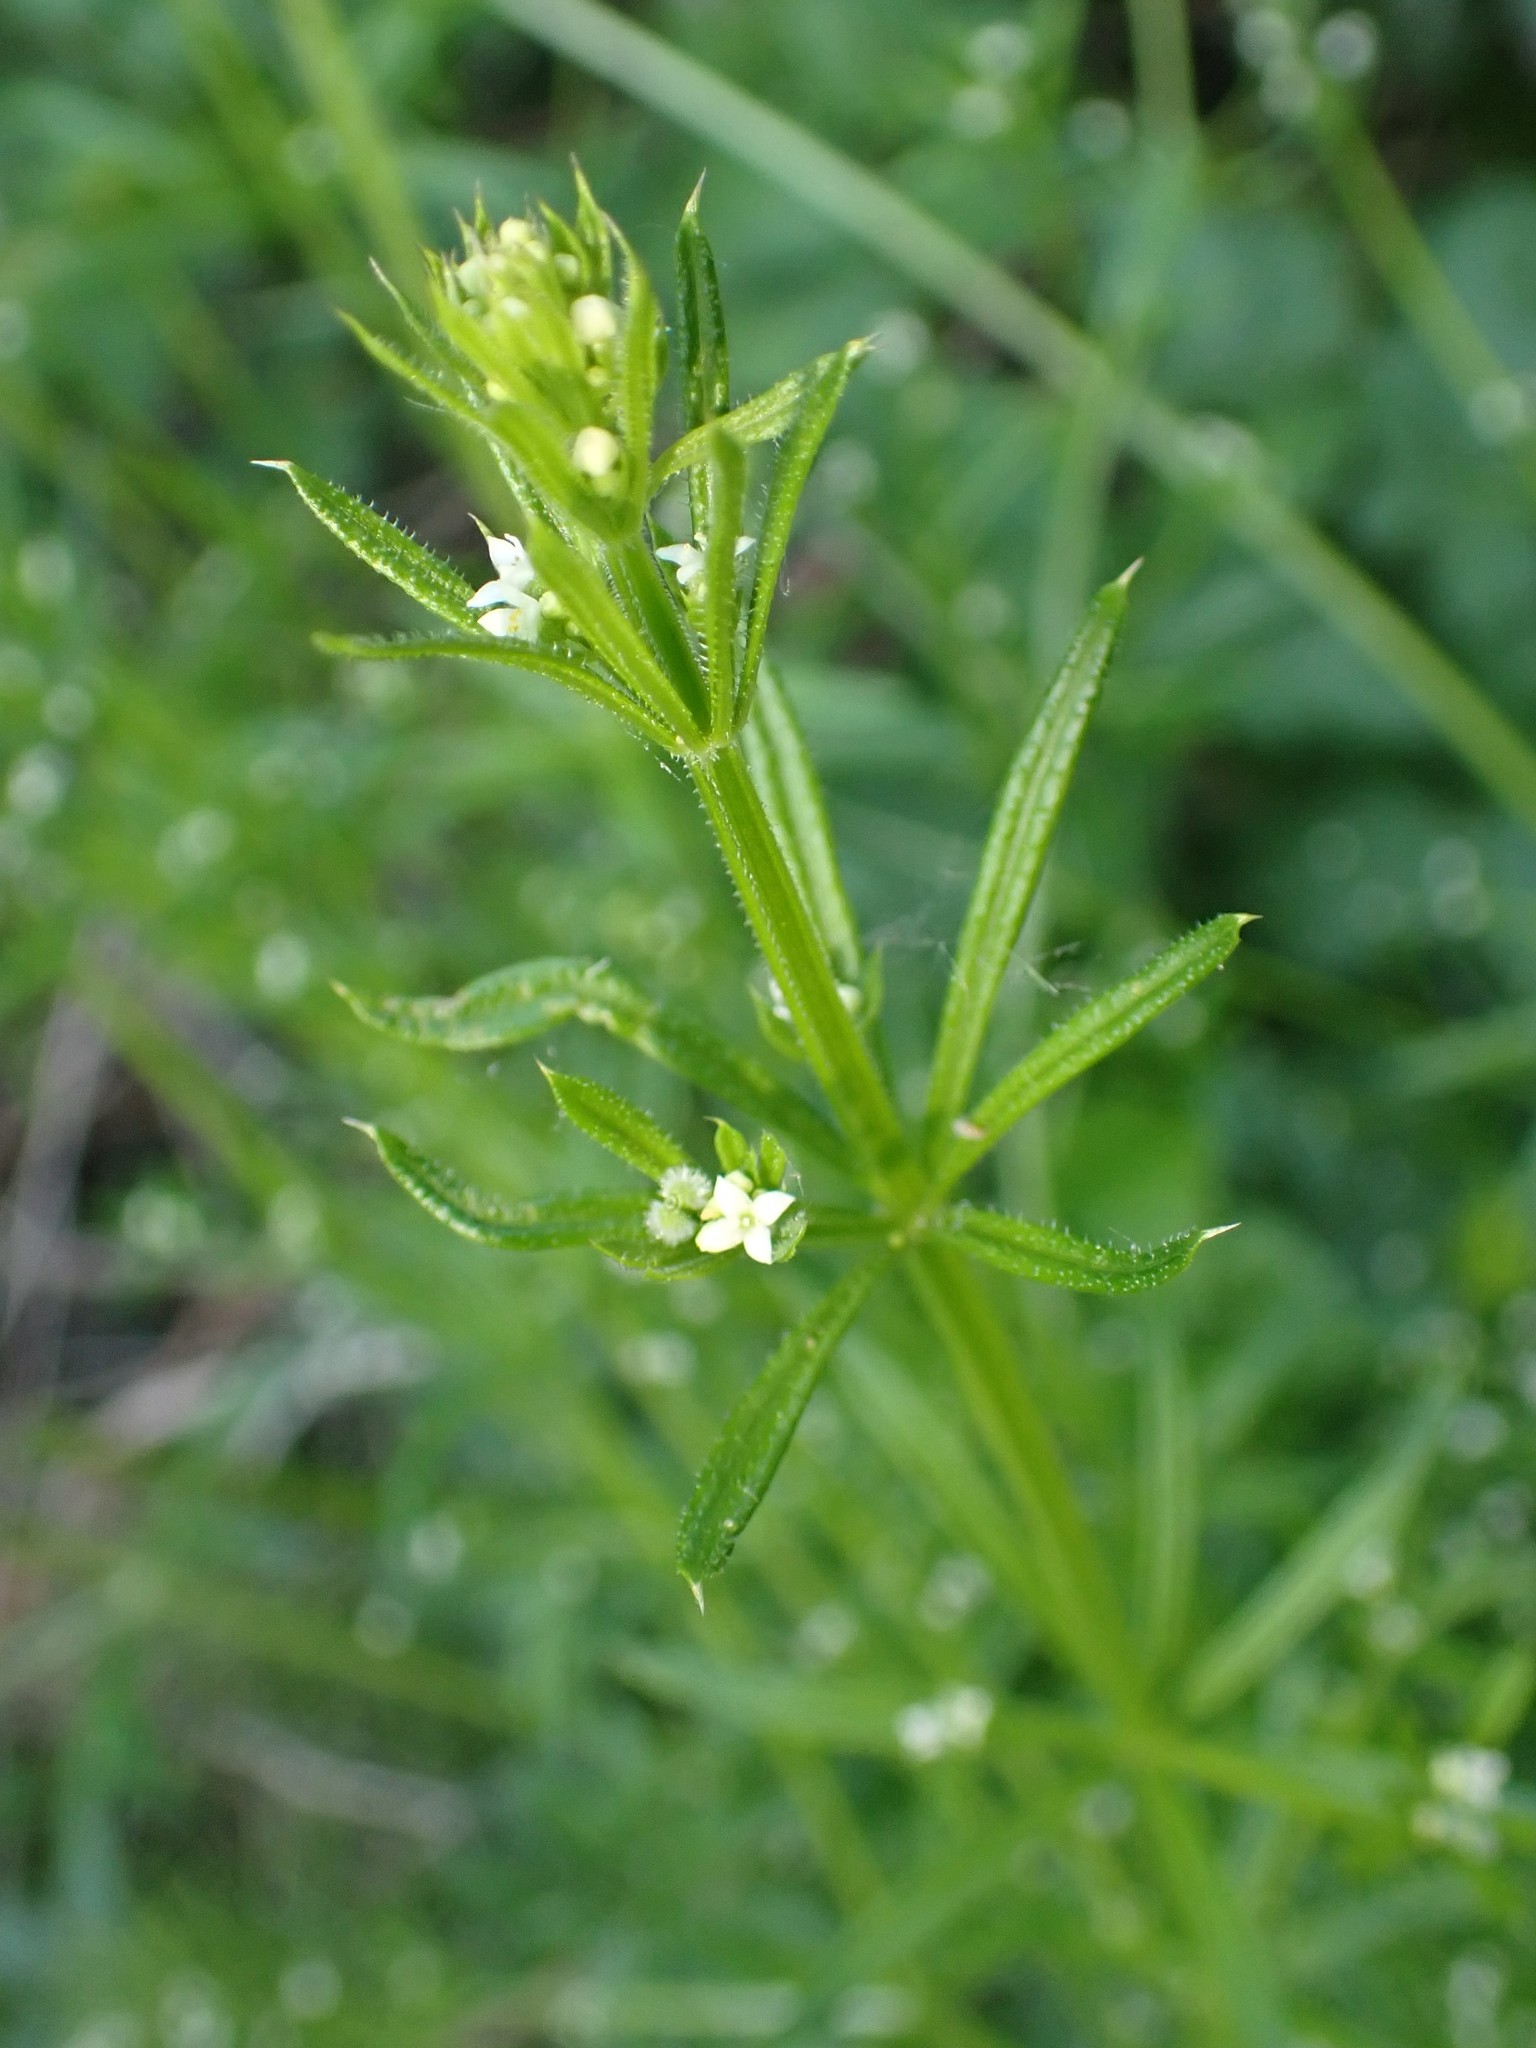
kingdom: Plantae
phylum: Tracheophyta
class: Magnoliopsida
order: Gentianales
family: Rubiaceae
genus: Galium
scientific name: Galium aparine
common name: Cleavers
